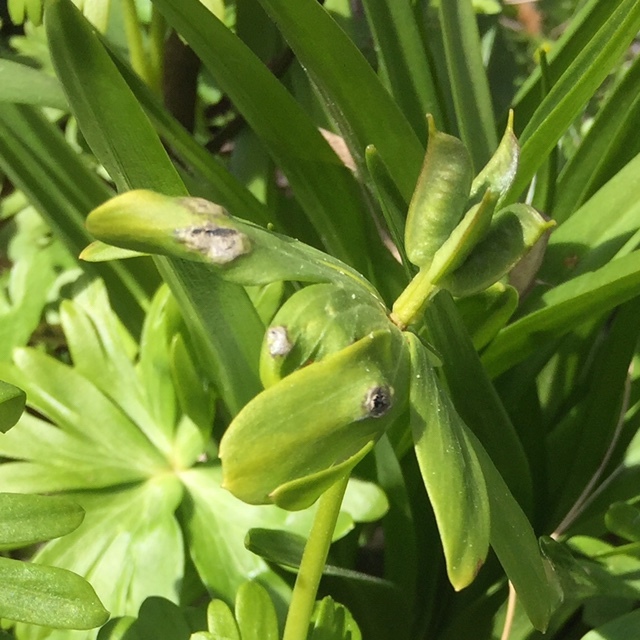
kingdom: Fungi
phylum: Basidiomycota
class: Ustilaginomycetes
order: Urocystidales
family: Urocystidaceae
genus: Urocystis
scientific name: Urocystis eranthidis
